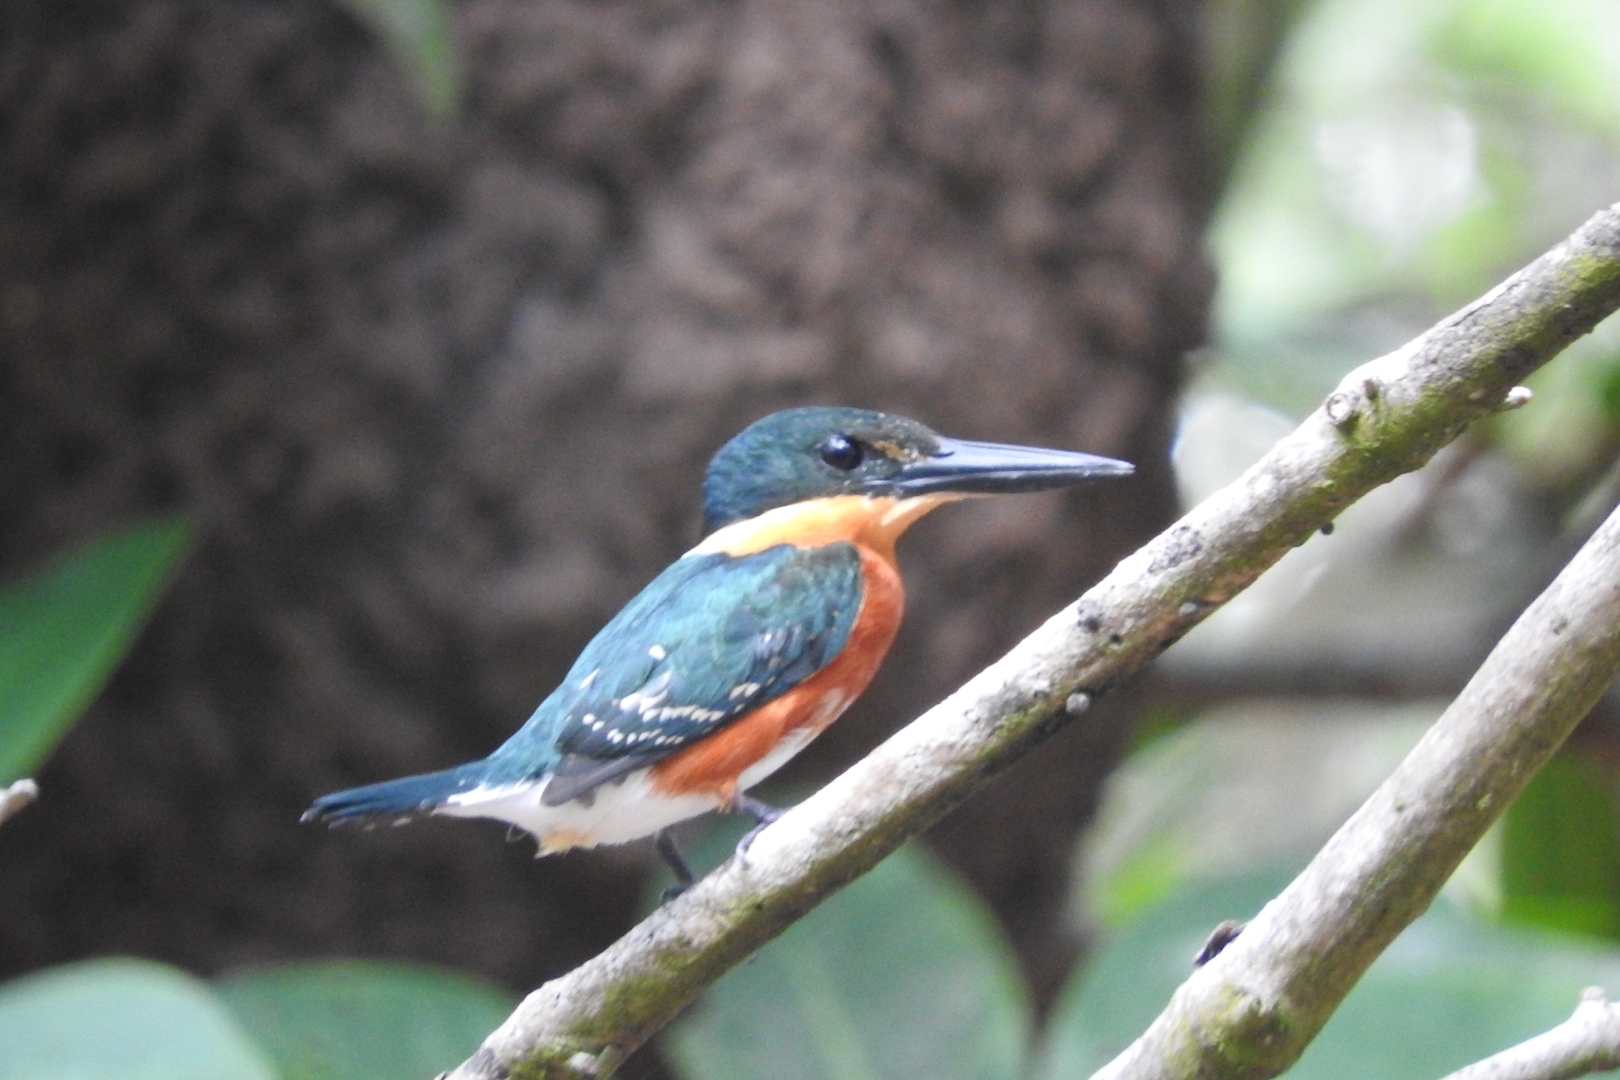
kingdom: Animalia
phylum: Chordata
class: Aves
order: Coraciiformes
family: Alcedinidae
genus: Chloroceryle
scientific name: Chloroceryle aenea
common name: American pygmy kingfisher
